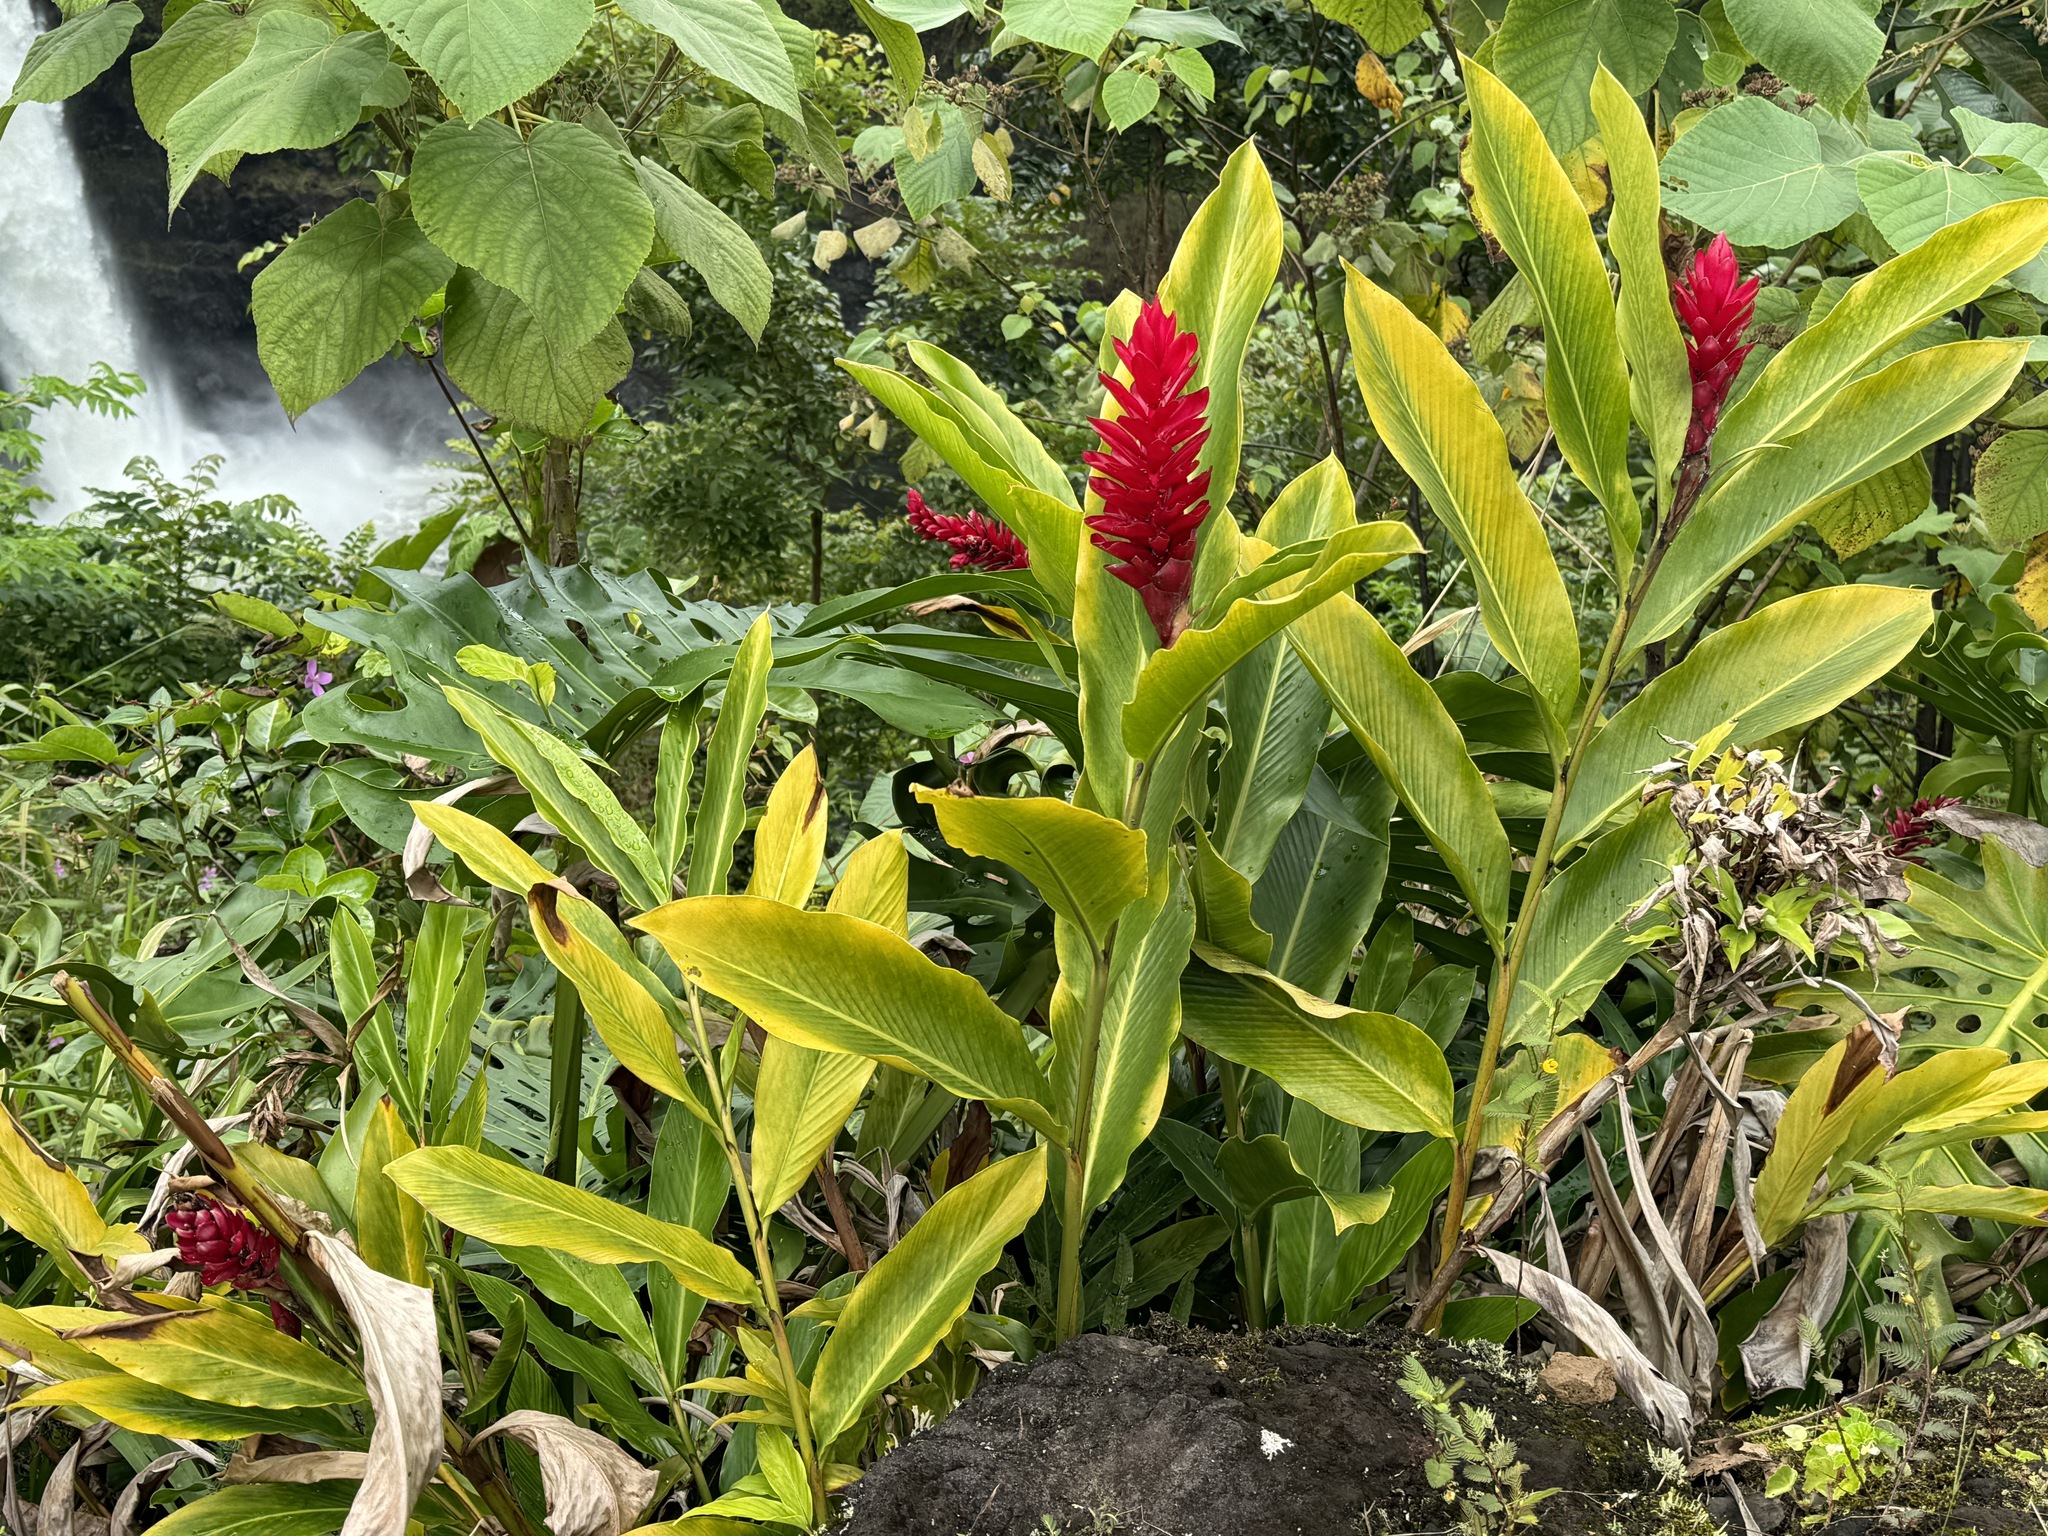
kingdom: Plantae
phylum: Tracheophyta
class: Liliopsida
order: Zingiberales
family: Zingiberaceae
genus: Alpinia
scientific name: Alpinia purpurata
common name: Red ginger
